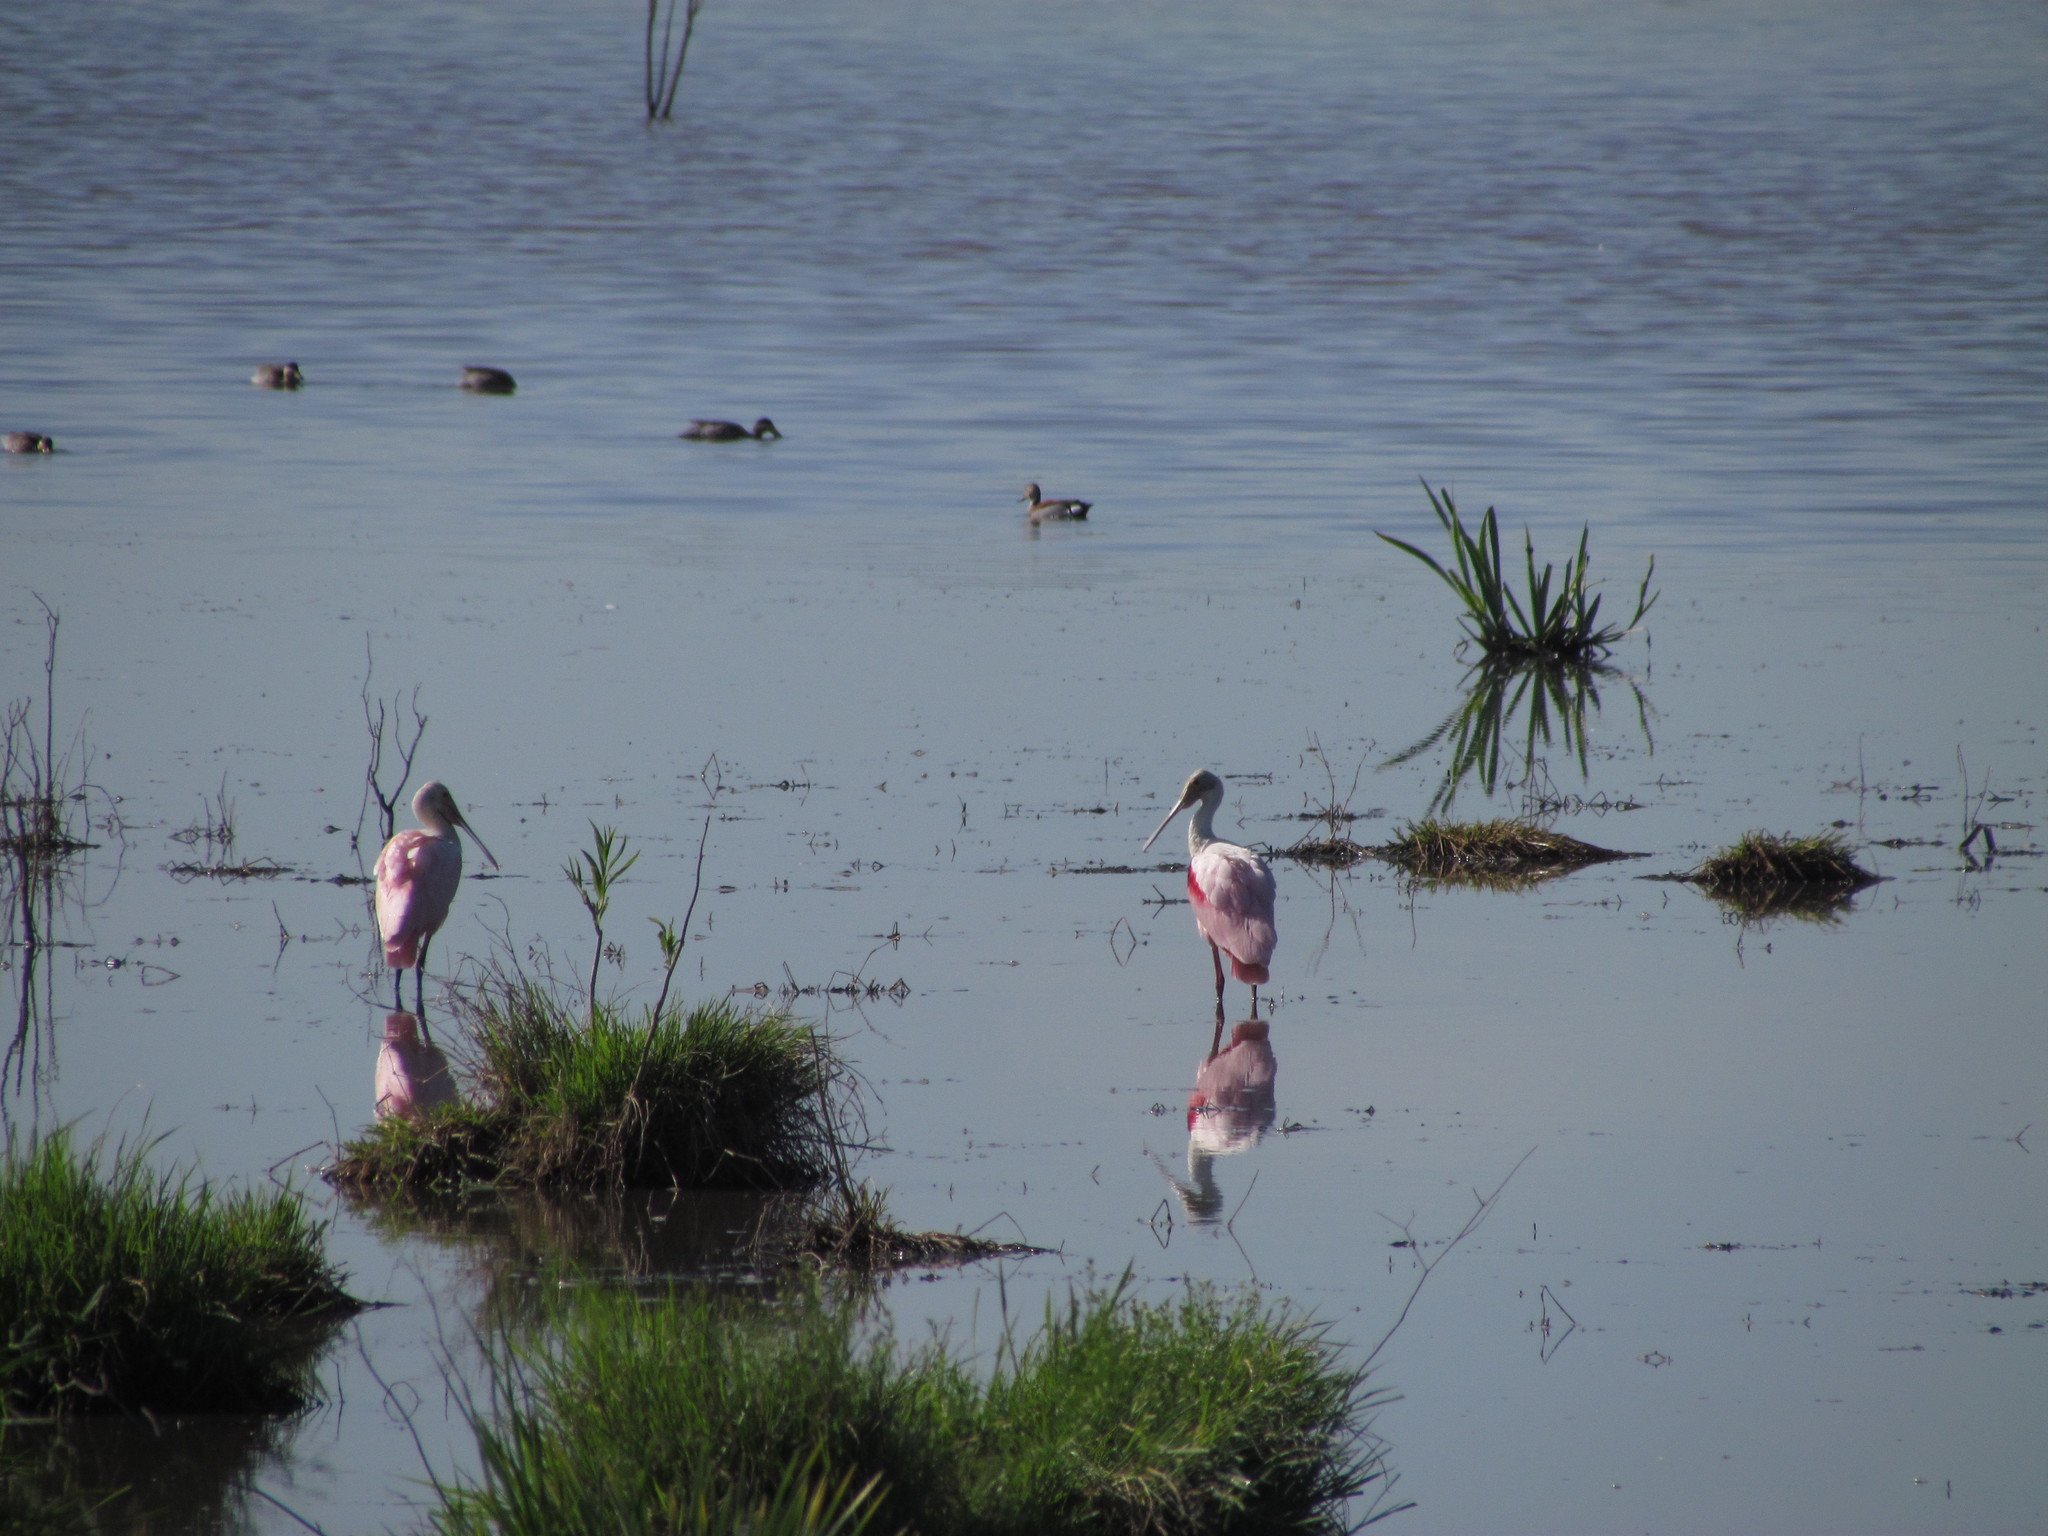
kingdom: Animalia
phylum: Chordata
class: Aves
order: Pelecaniformes
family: Threskiornithidae
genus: Platalea
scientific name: Platalea ajaja
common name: Roseate spoonbill
